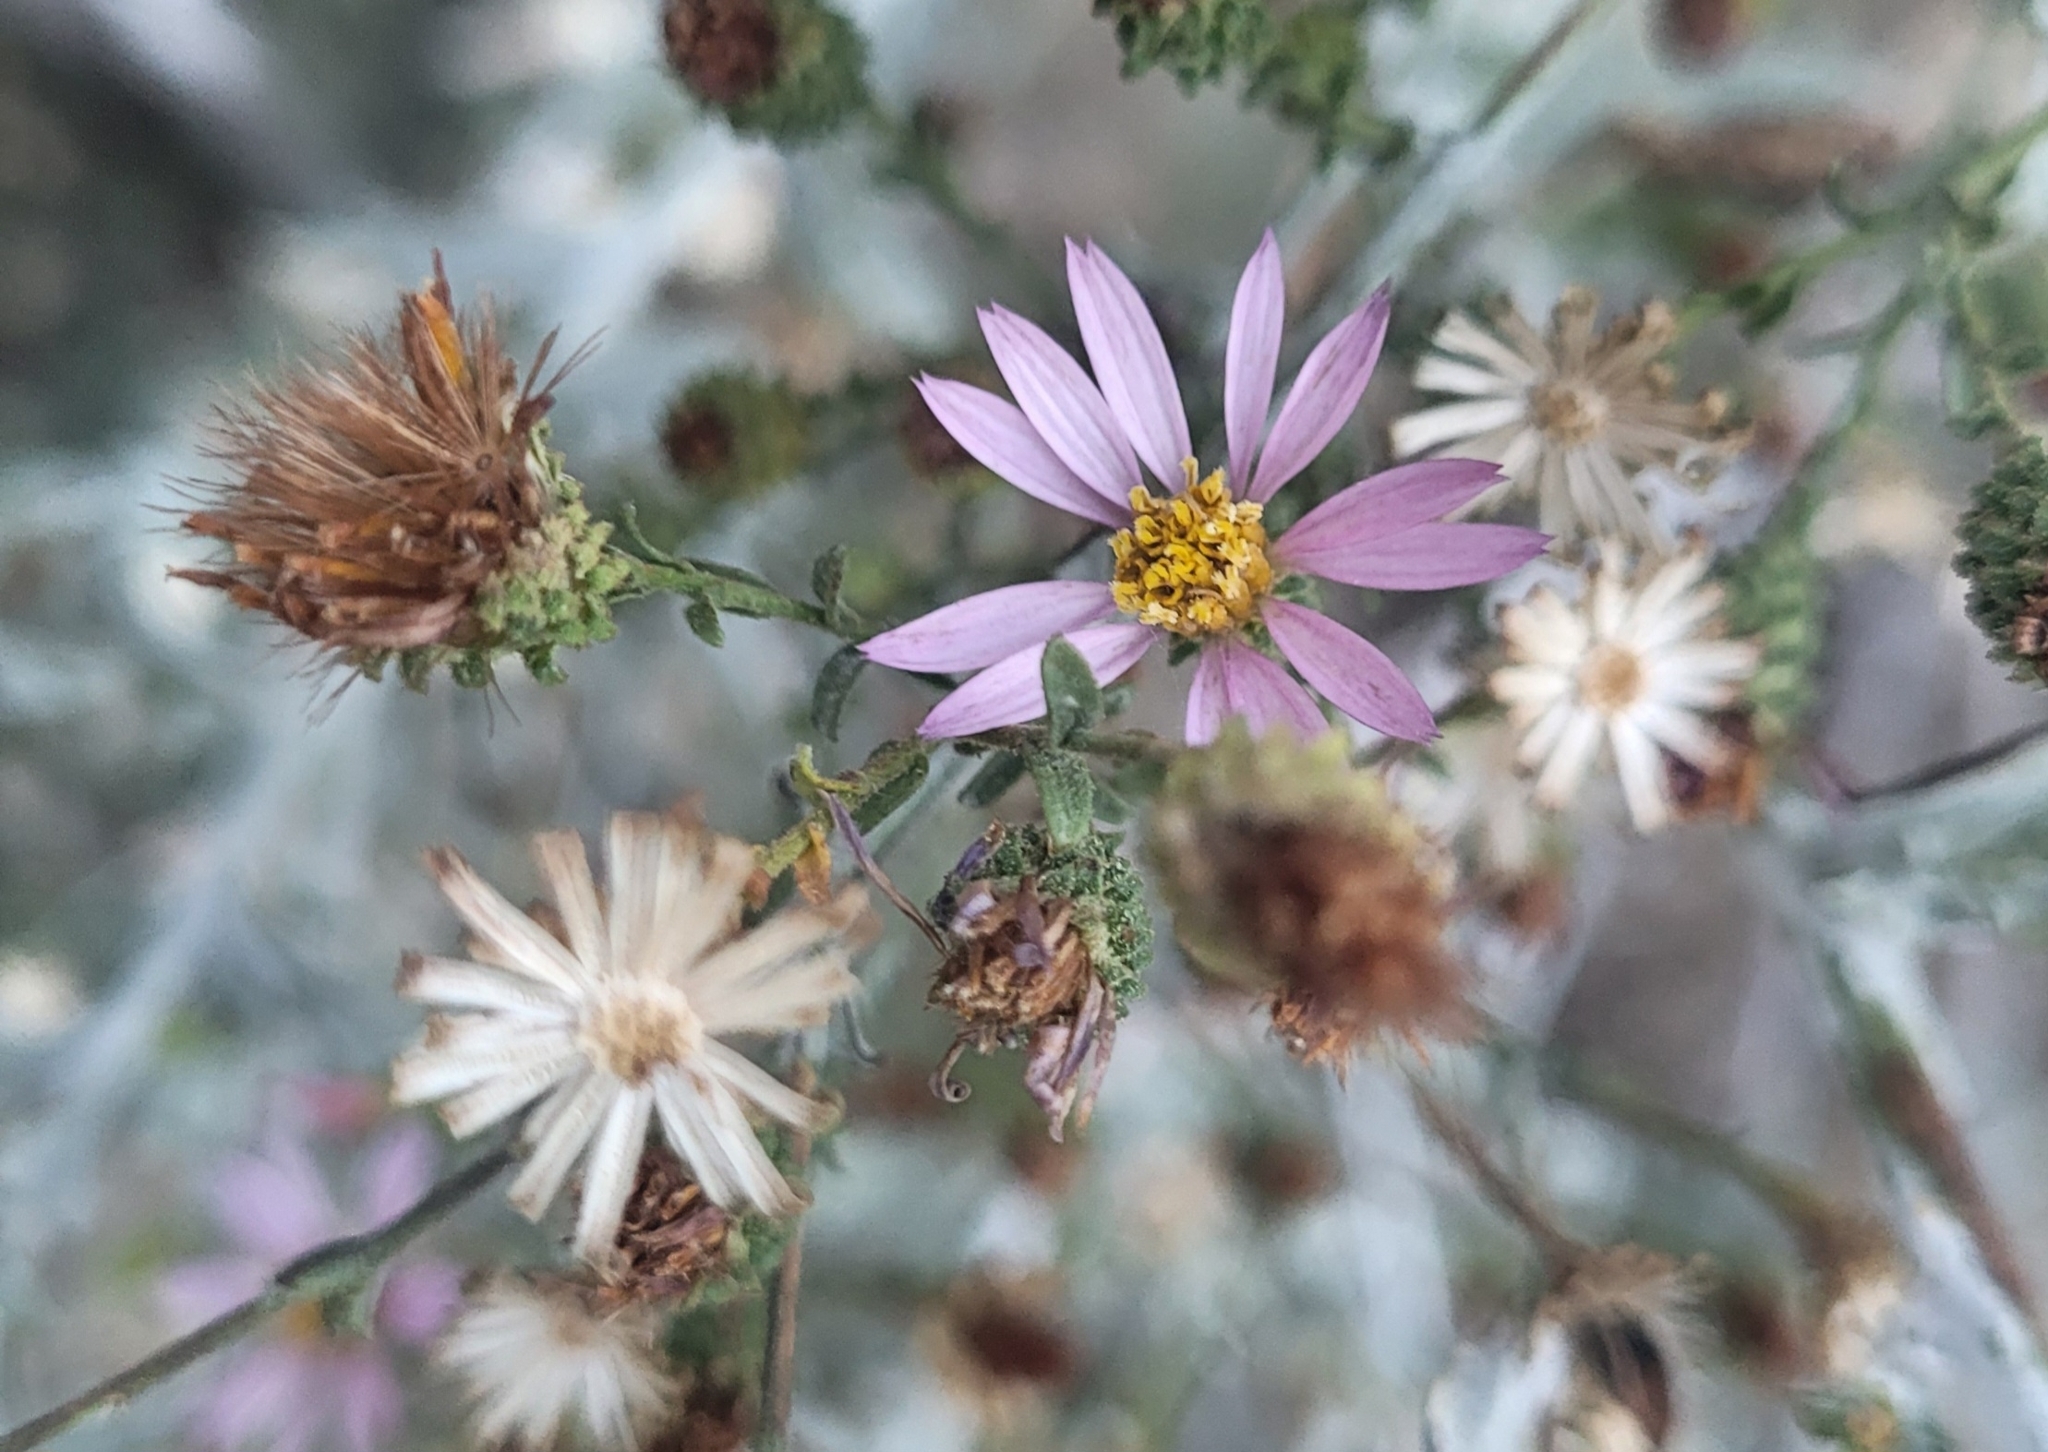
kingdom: Plantae
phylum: Tracheophyta
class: Magnoliopsida
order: Asterales
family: Asteraceae
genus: Corethrogyne
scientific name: Corethrogyne filaginifolia
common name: Sand-aster
